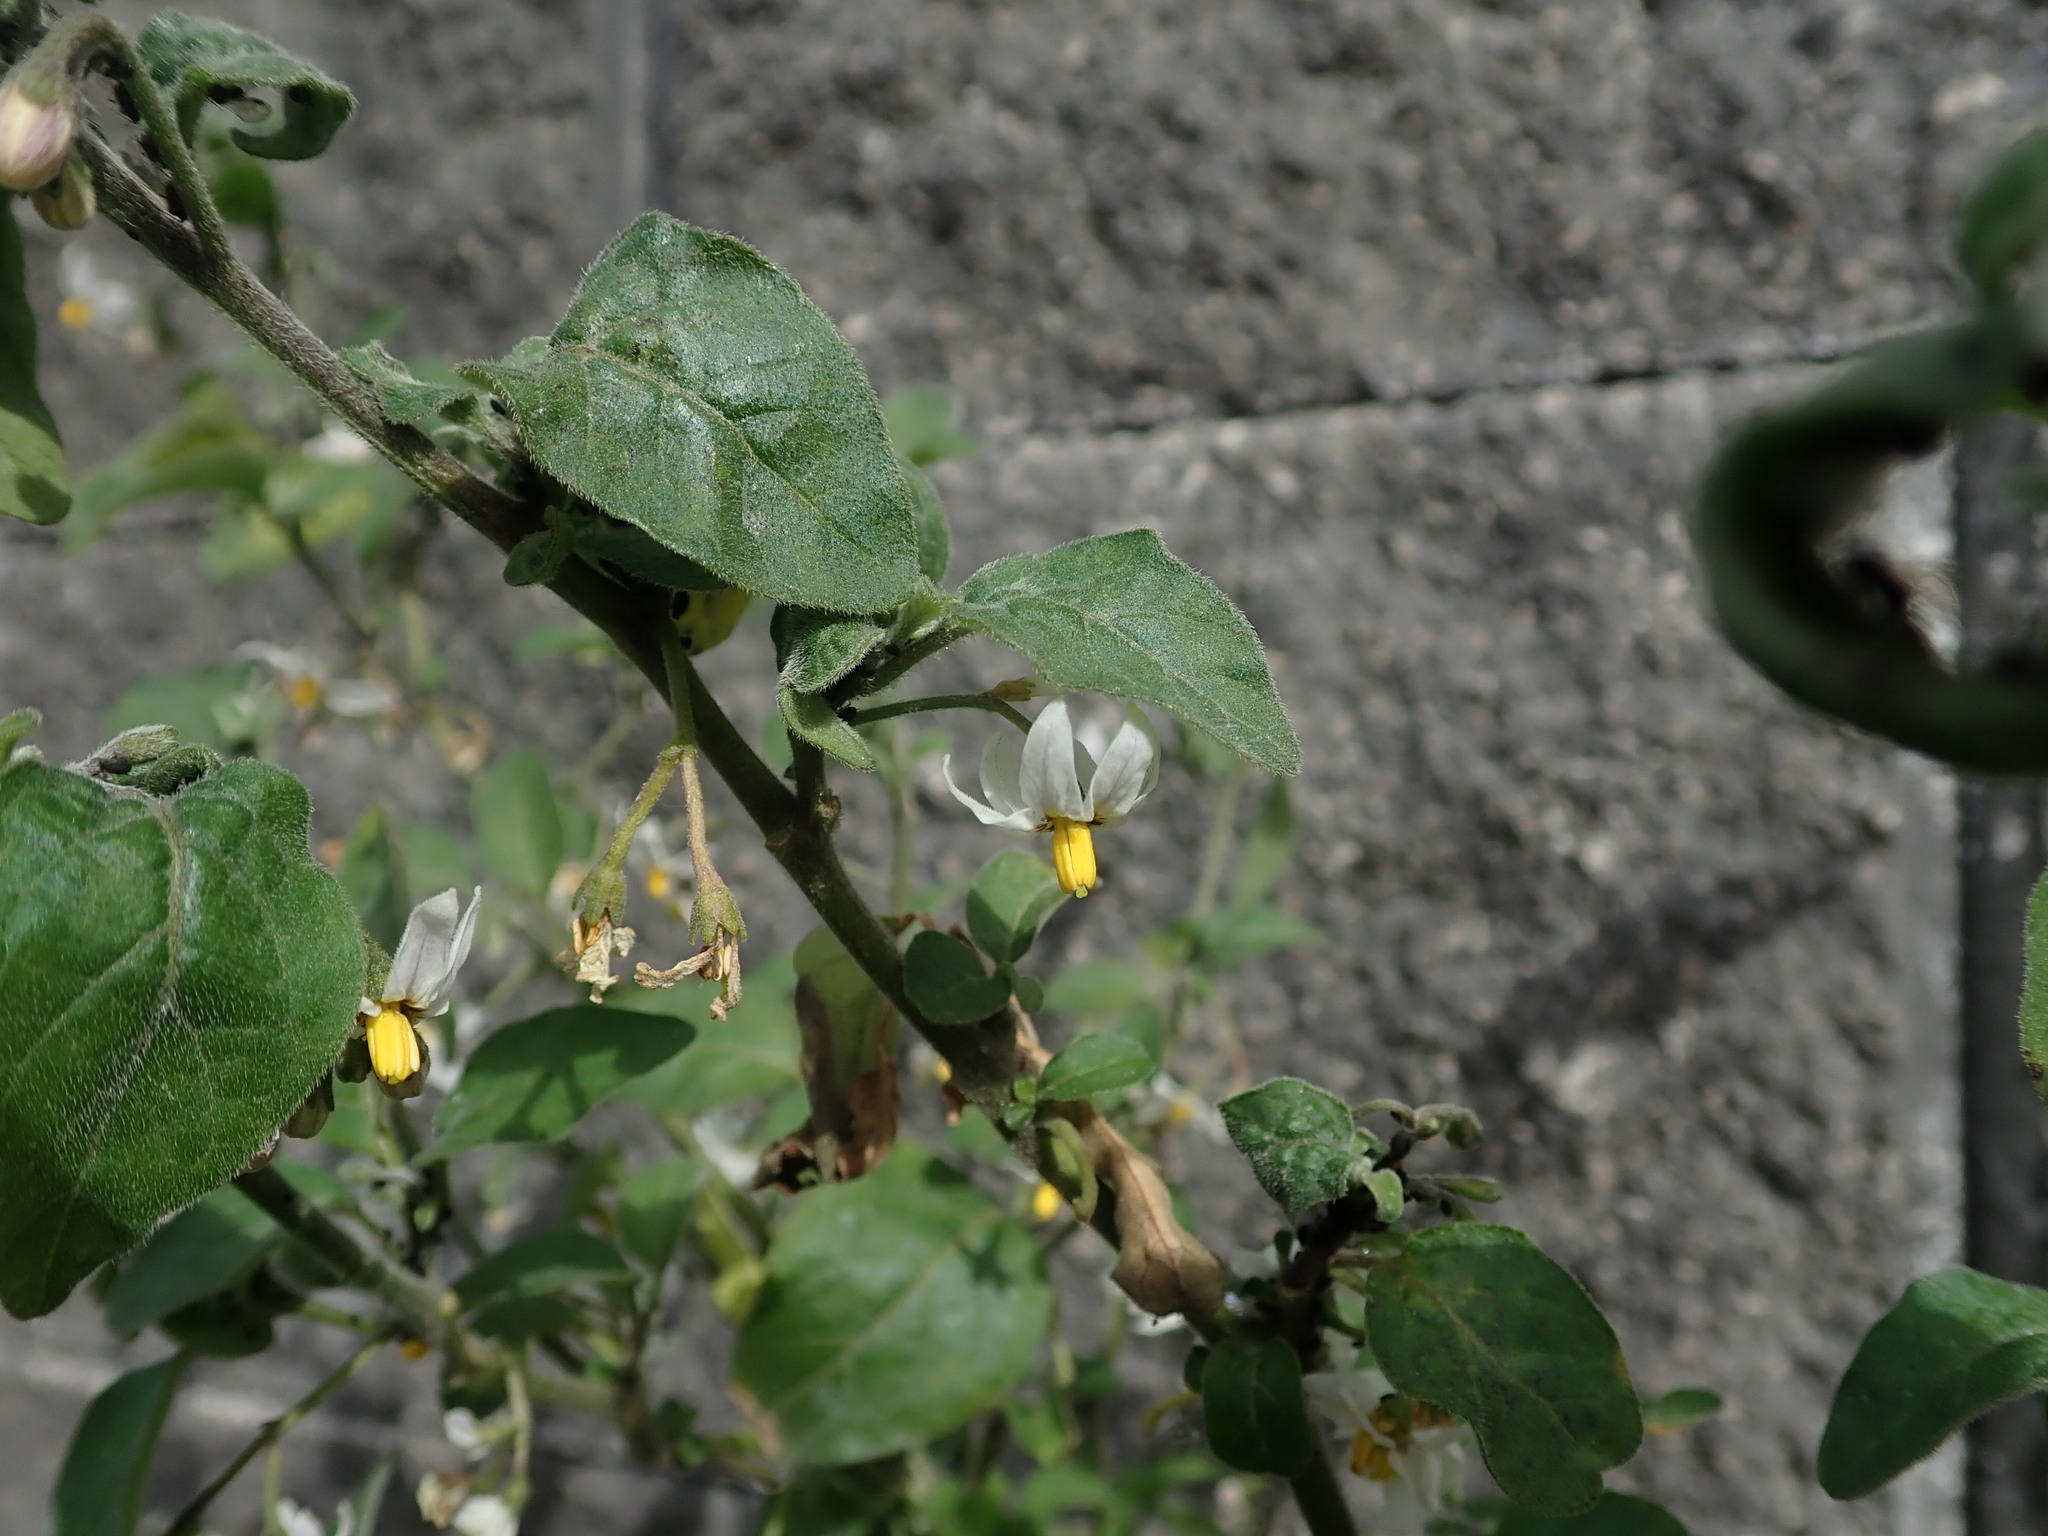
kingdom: Plantae
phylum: Tracheophyta
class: Magnoliopsida
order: Solanales
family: Solanaceae
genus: Solanum
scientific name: Solanum chenopodioides
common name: Tall nightshade
